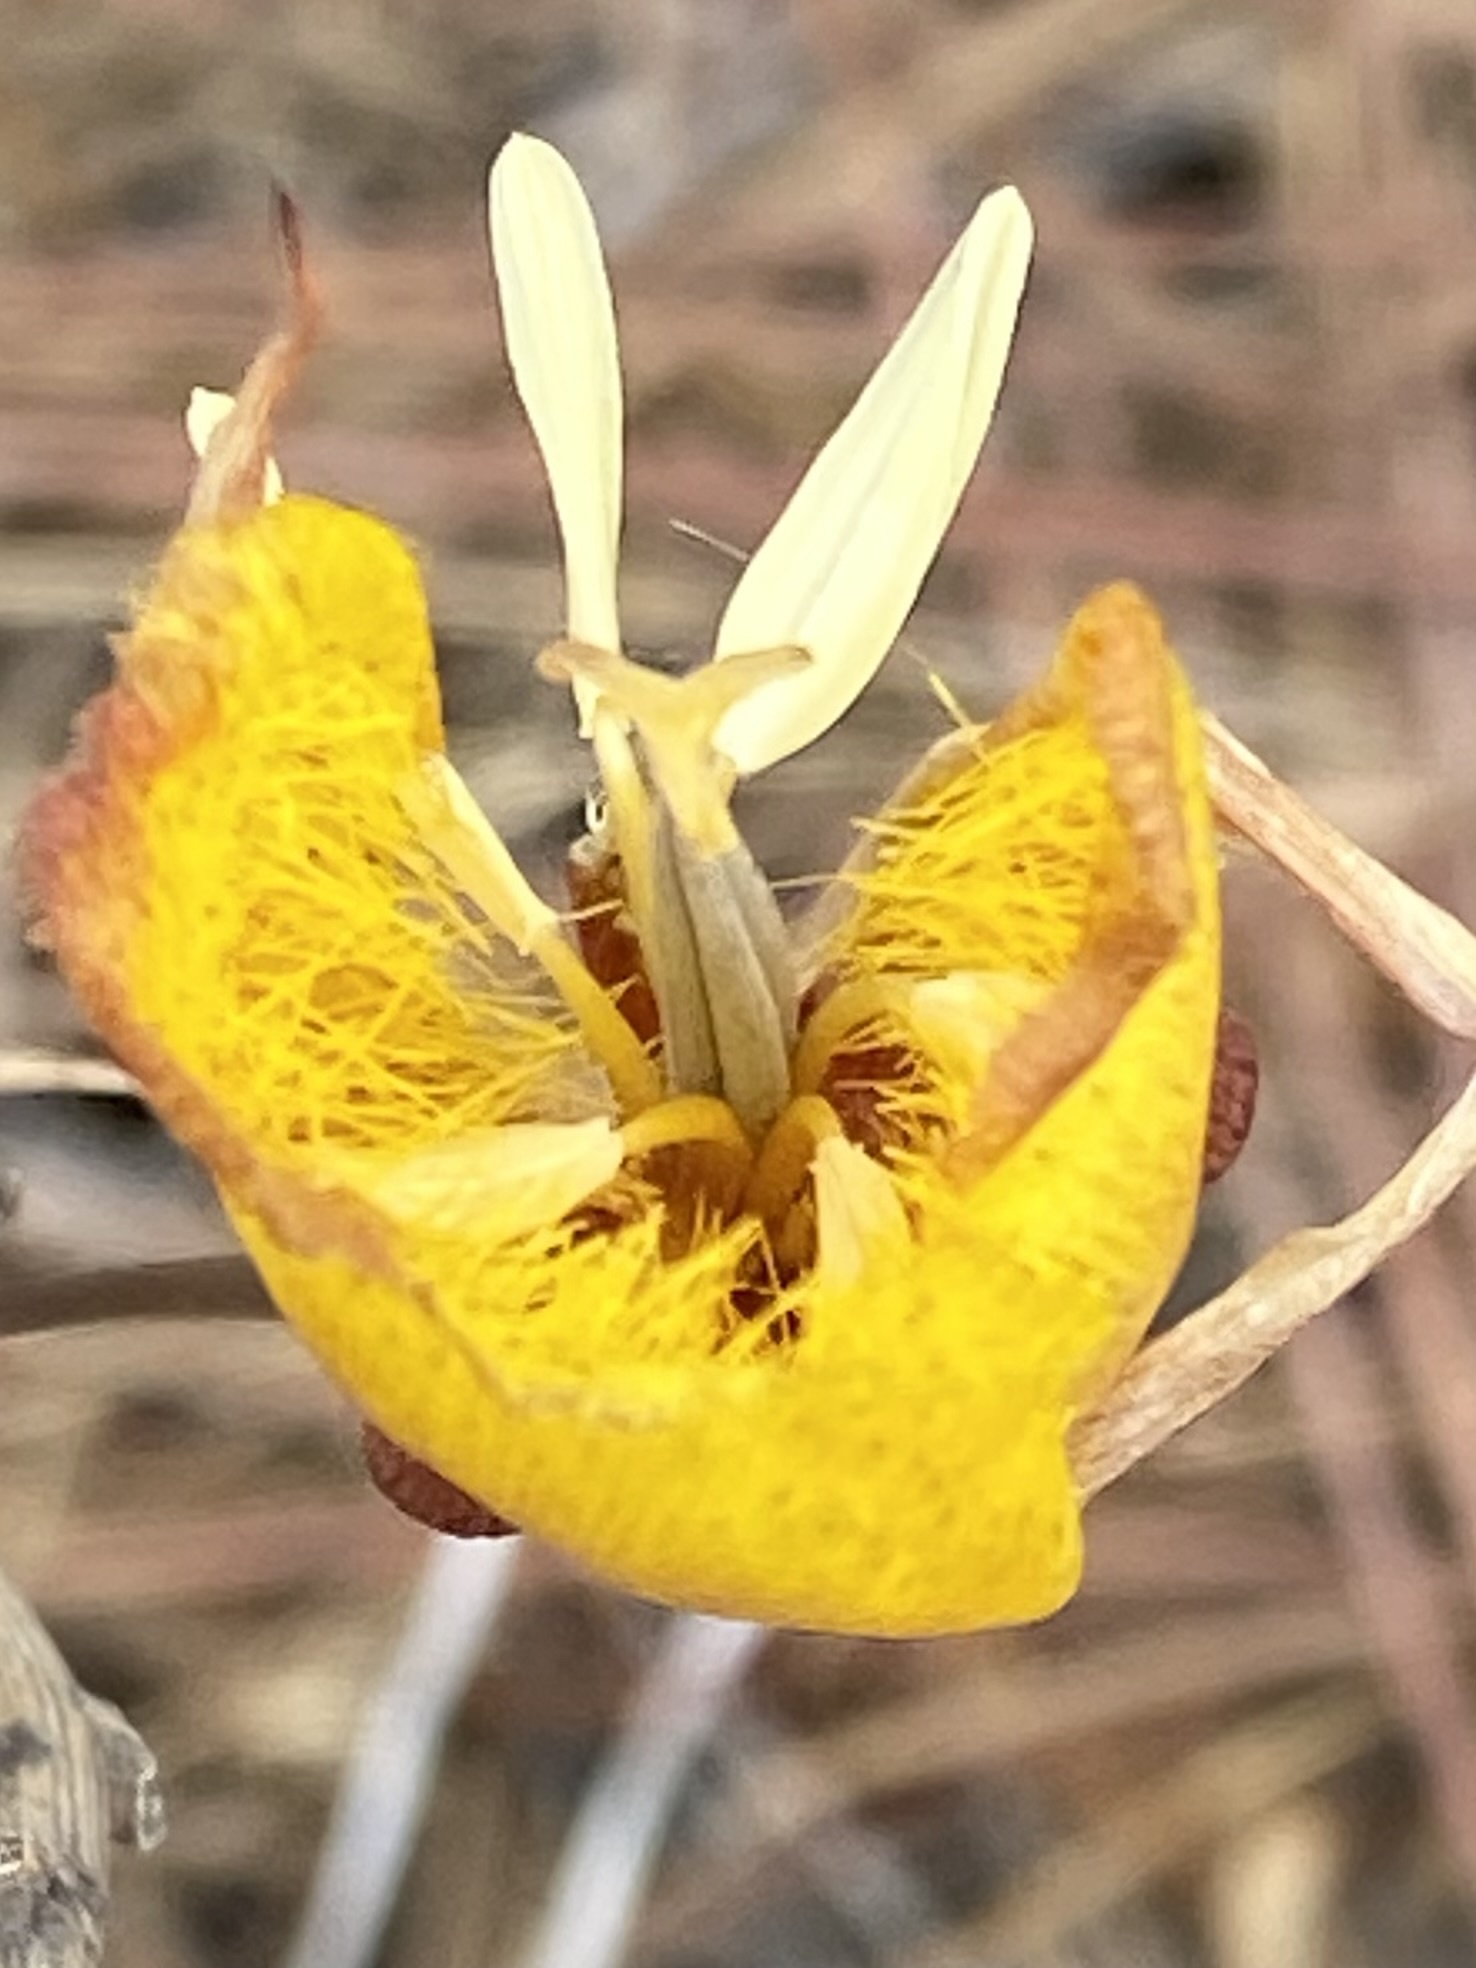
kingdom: Plantae
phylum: Tracheophyta
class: Liliopsida
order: Liliales
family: Liliaceae
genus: Calochortus
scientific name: Calochortus weedii
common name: Weed's mariposa-lily
